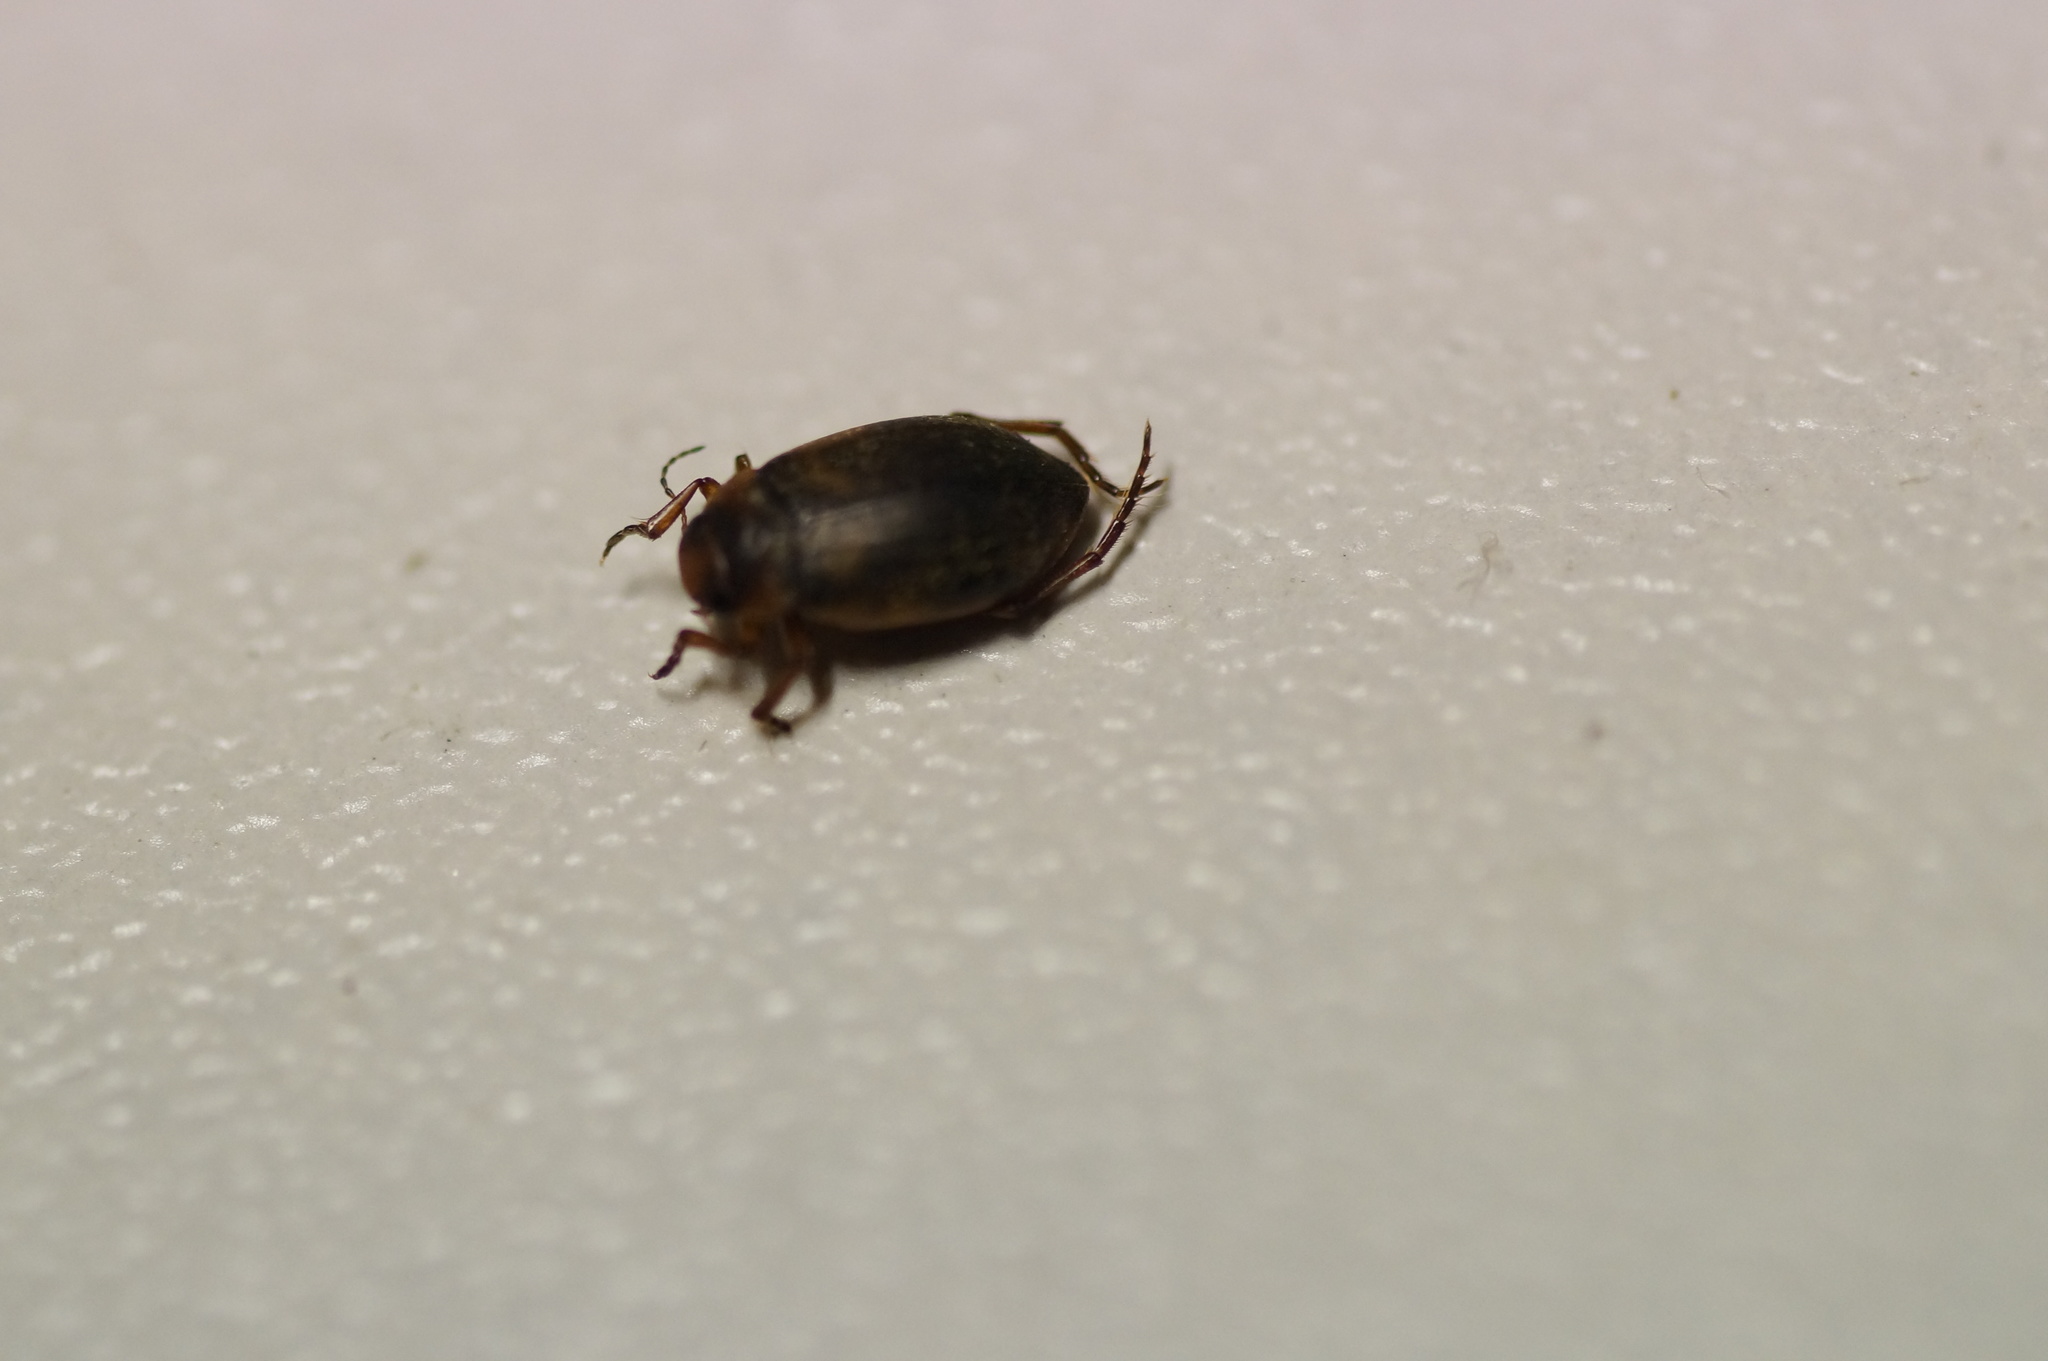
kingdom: Animalia
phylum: Arthropoda
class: Insecta
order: Coleoptera
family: Dytiscidae
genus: Hydroporus
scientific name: Hydroporus
